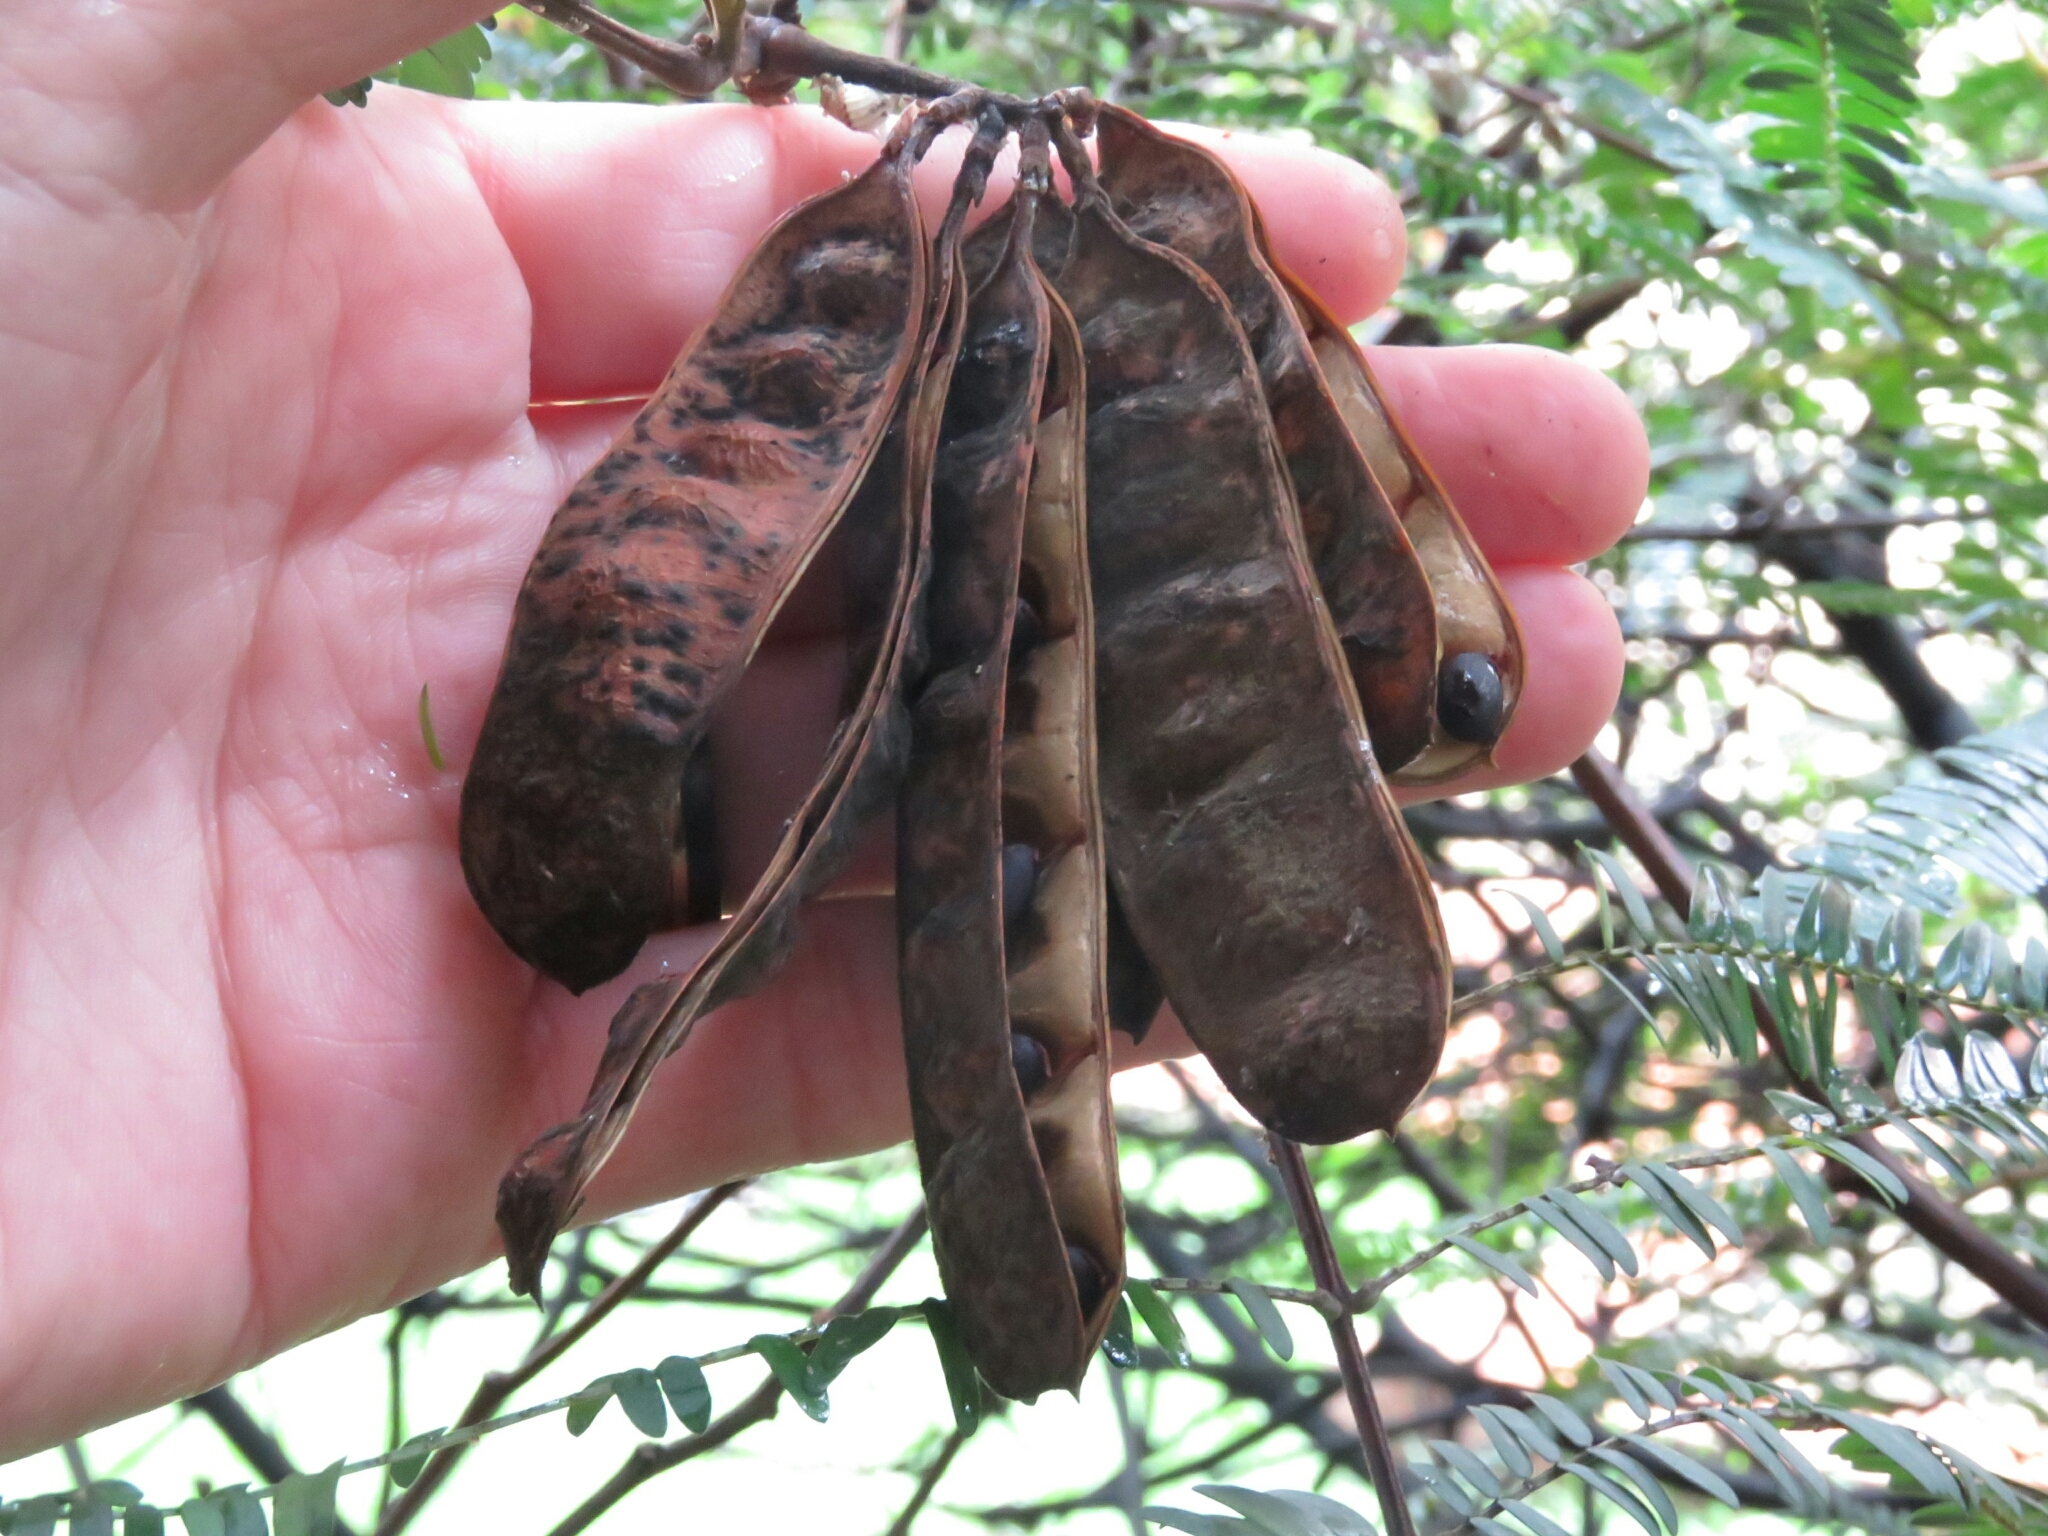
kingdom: Plantae
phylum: Tracheophyta
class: Magnoliopsida
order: Fabales
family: Fabaceae
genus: Paraserianthes
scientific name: Paraserianthes lophantha
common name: Plume albizia
